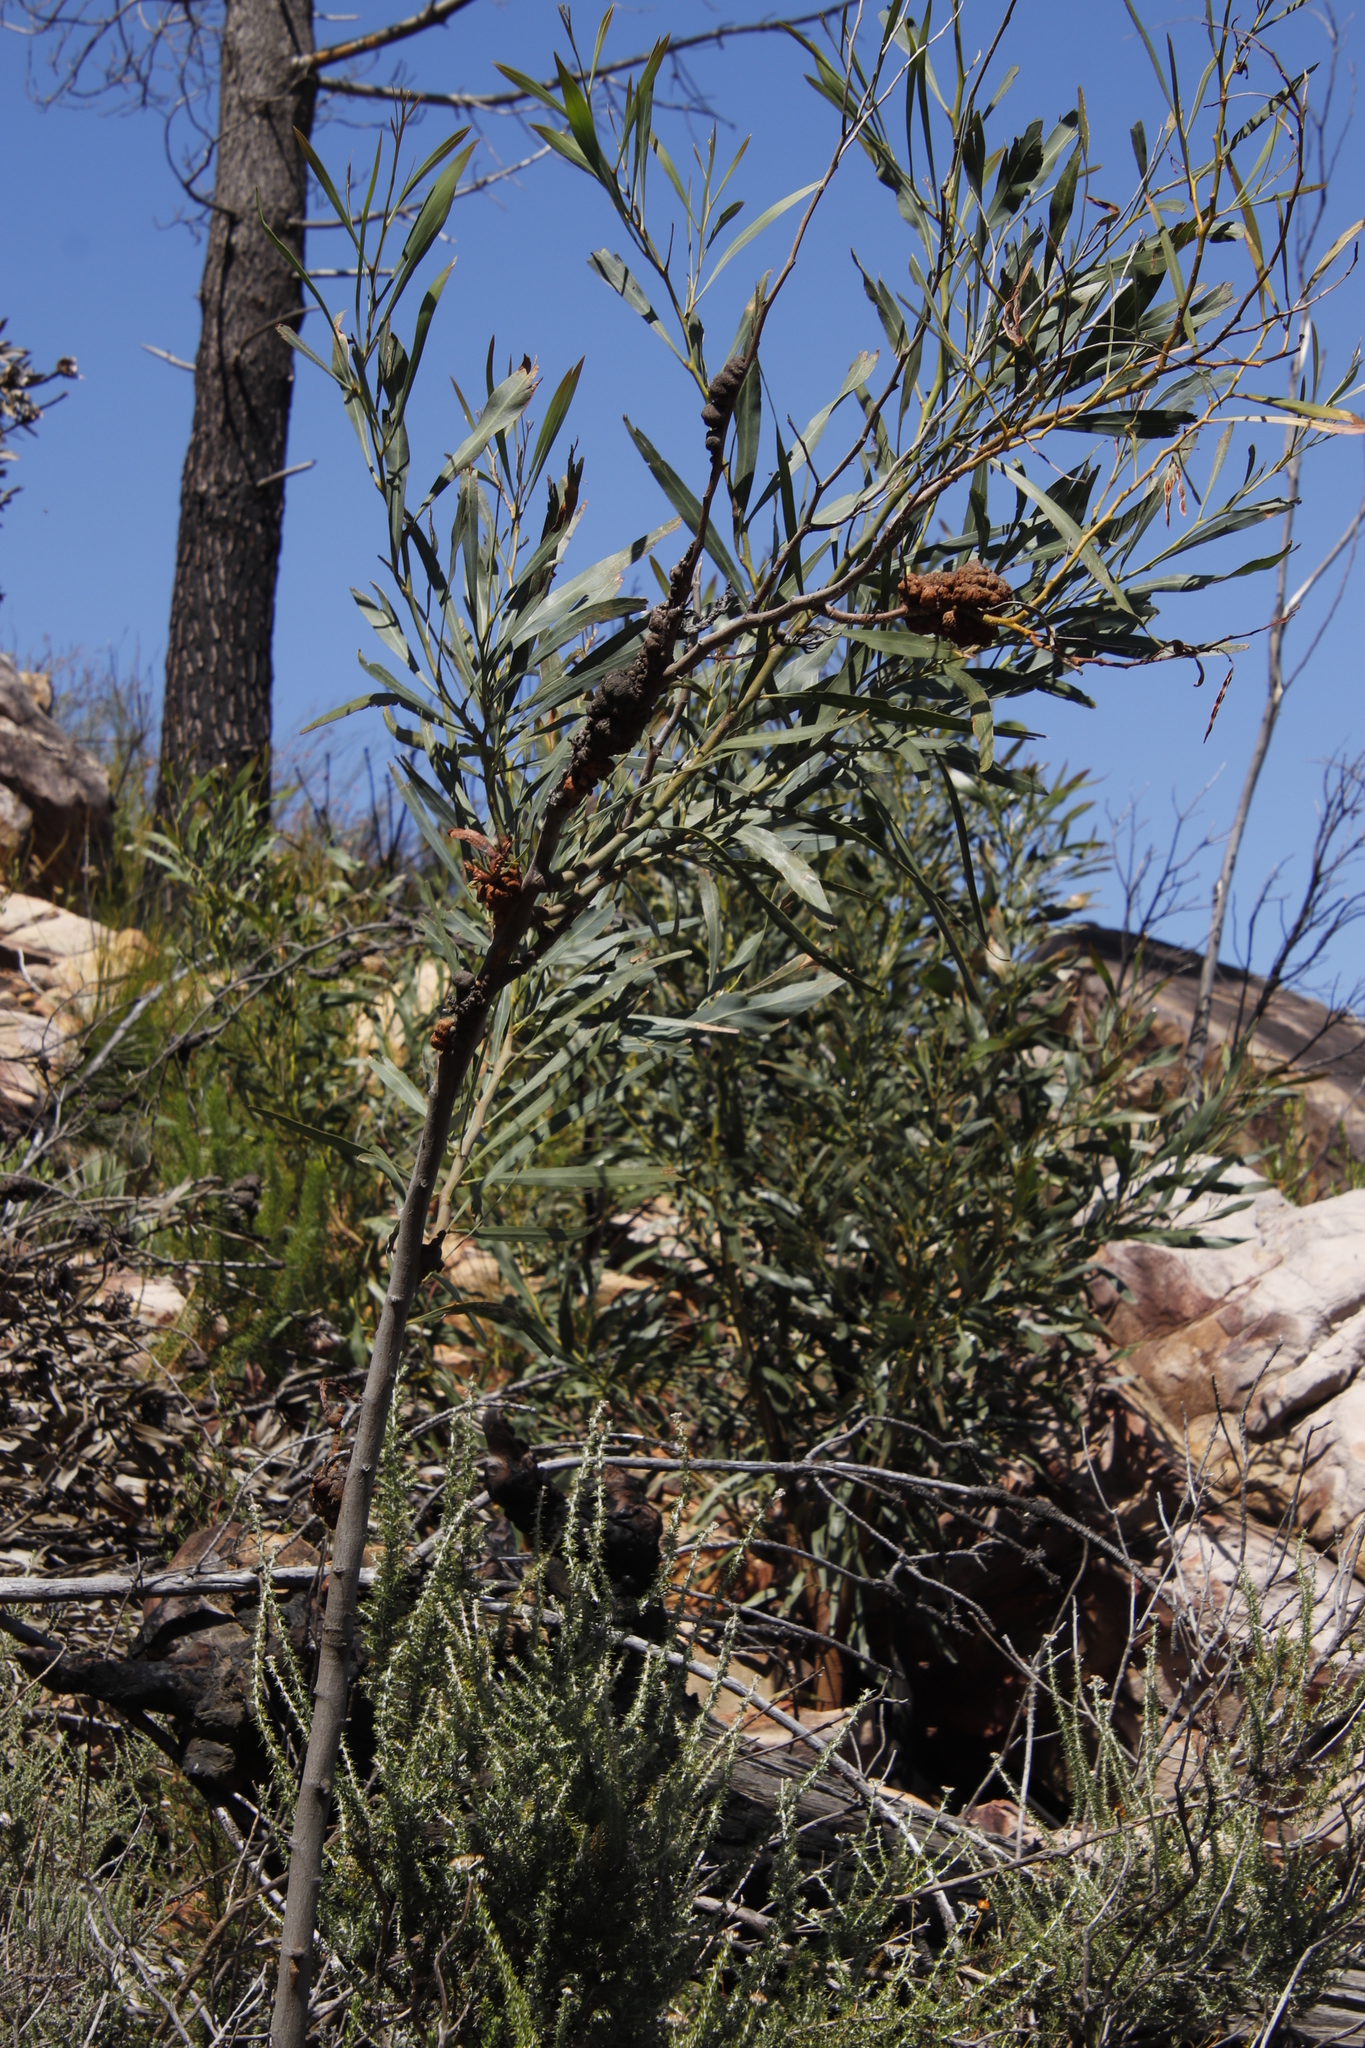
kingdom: Plantae
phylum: Tracheophyta
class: Magnoliopsida
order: Fabales
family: Fabaceae
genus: Acacia
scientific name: Acacia saligna
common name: Orange wattle
